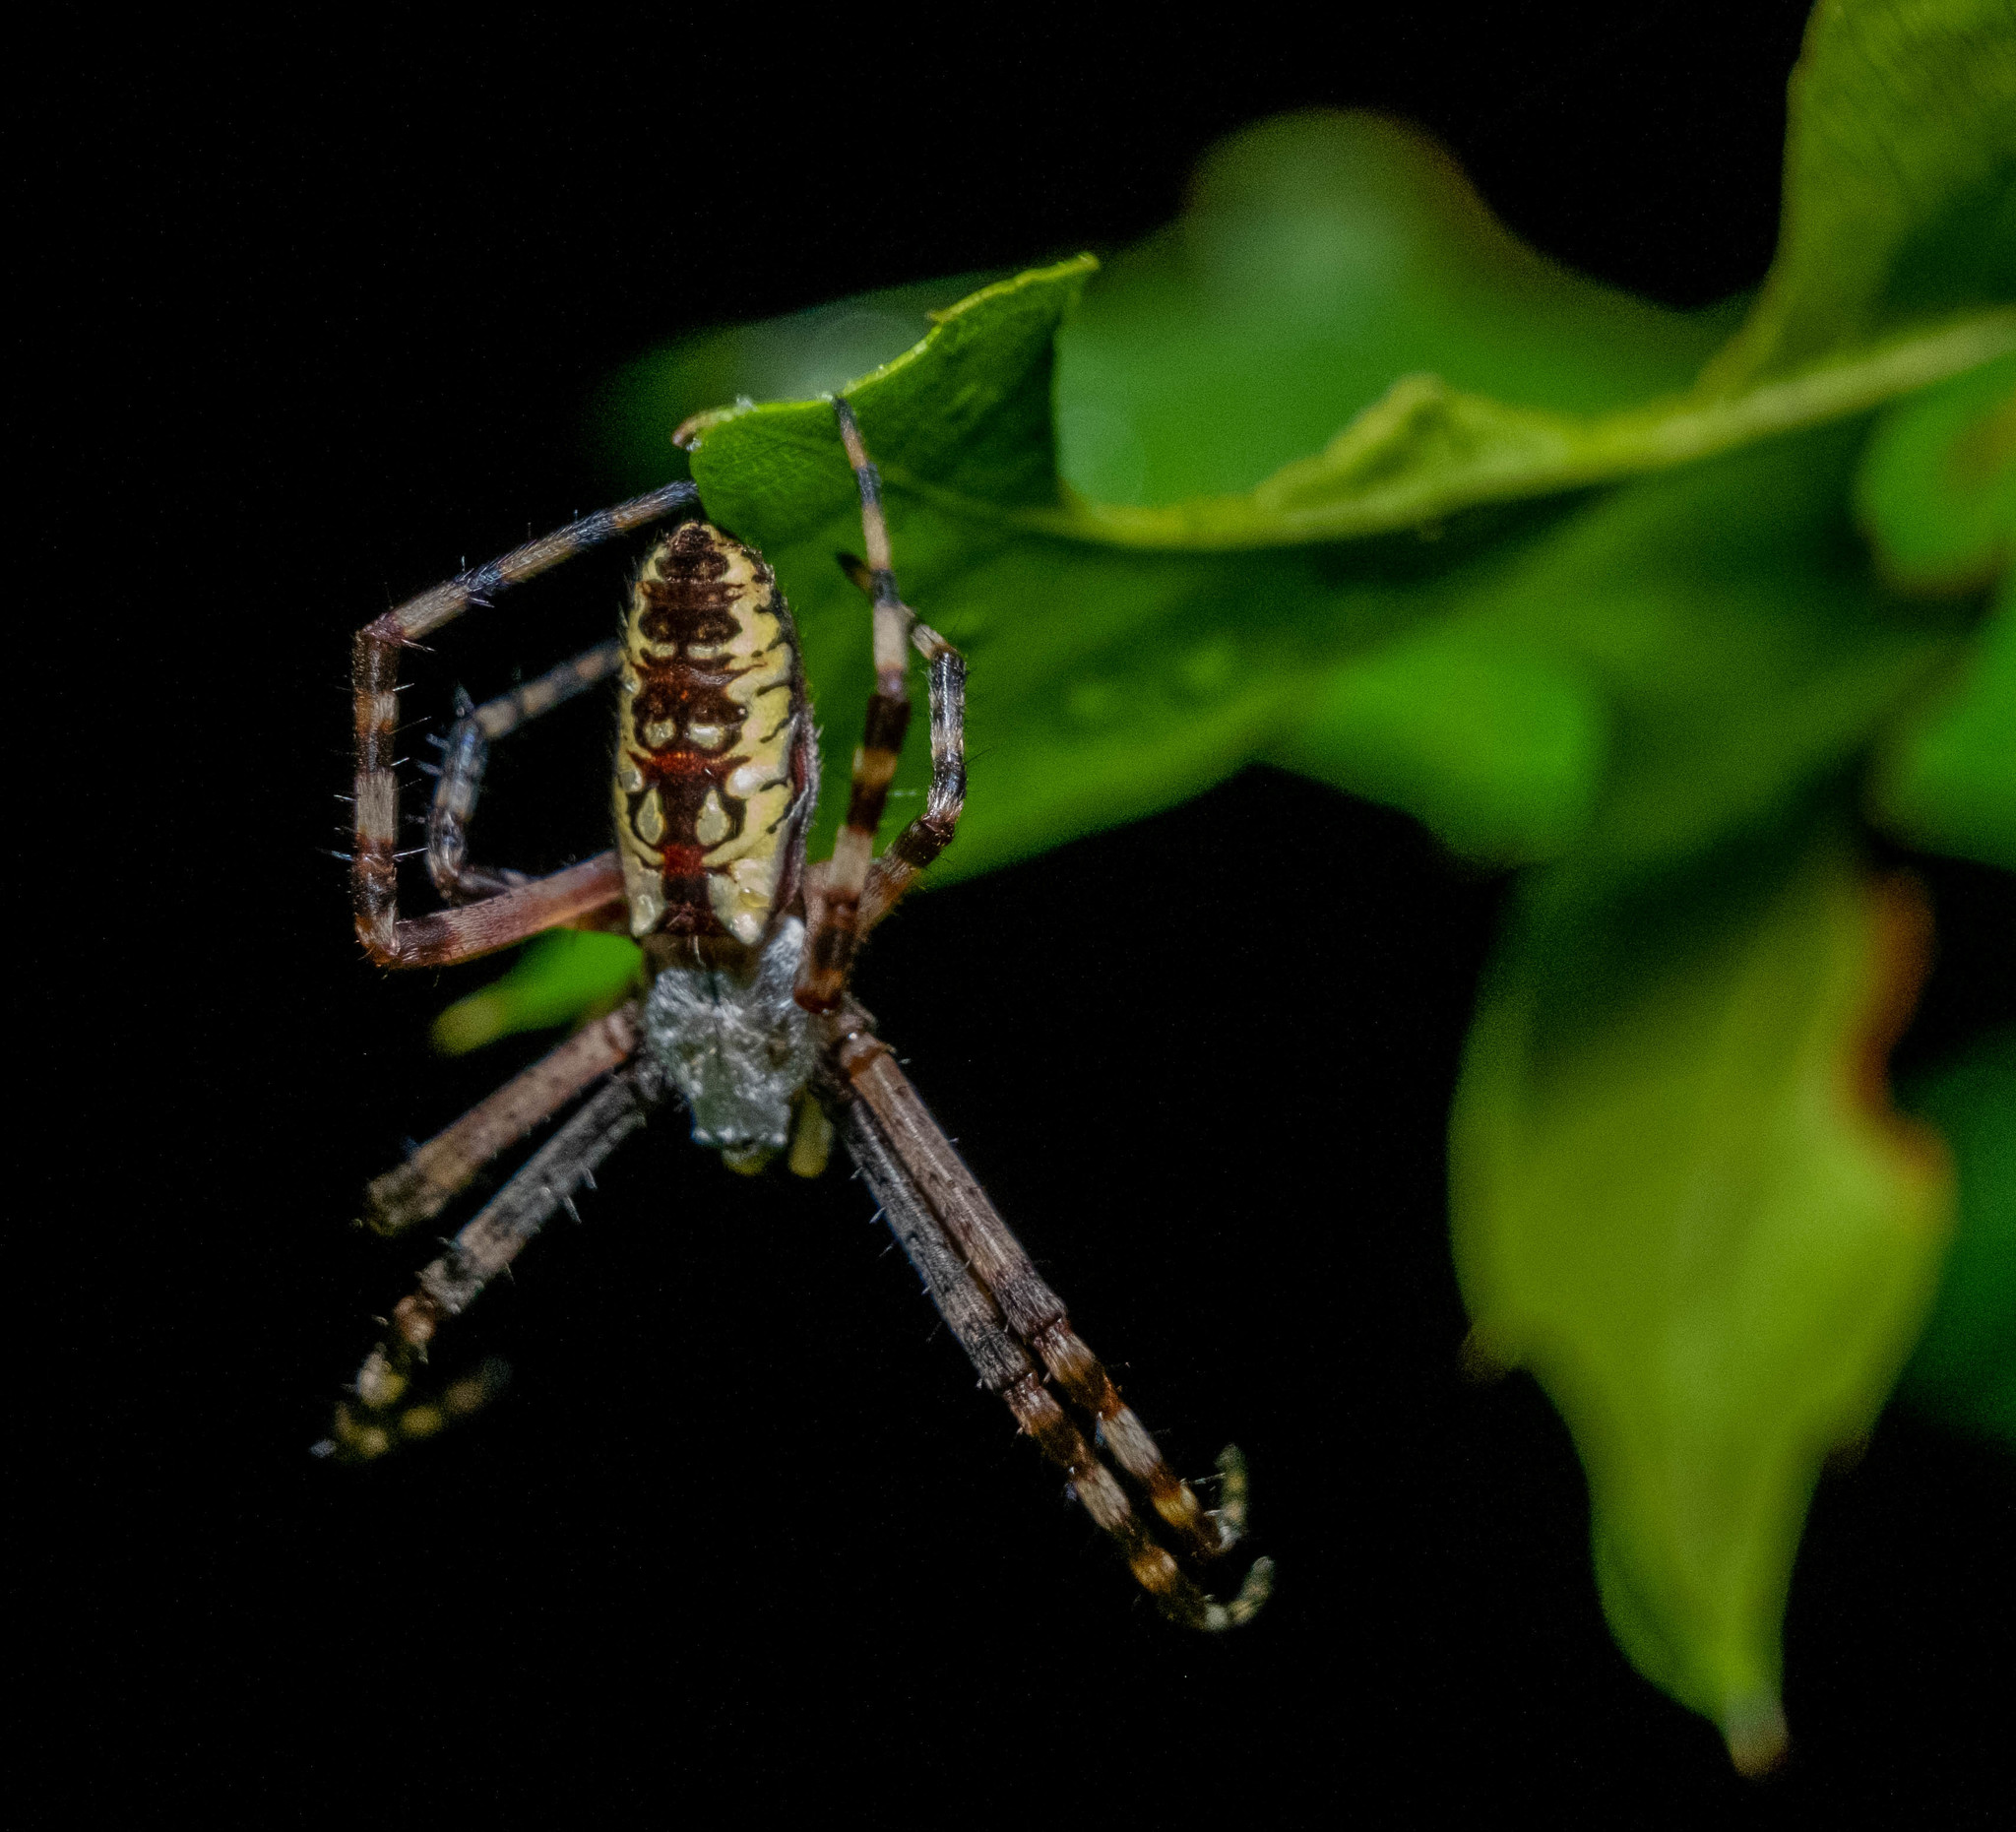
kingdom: Animalia
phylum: Arthropoda
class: Arachnida
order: Araneae
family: Araneidae
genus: Argiope
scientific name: Argiope aurantia
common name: Orb weavers
